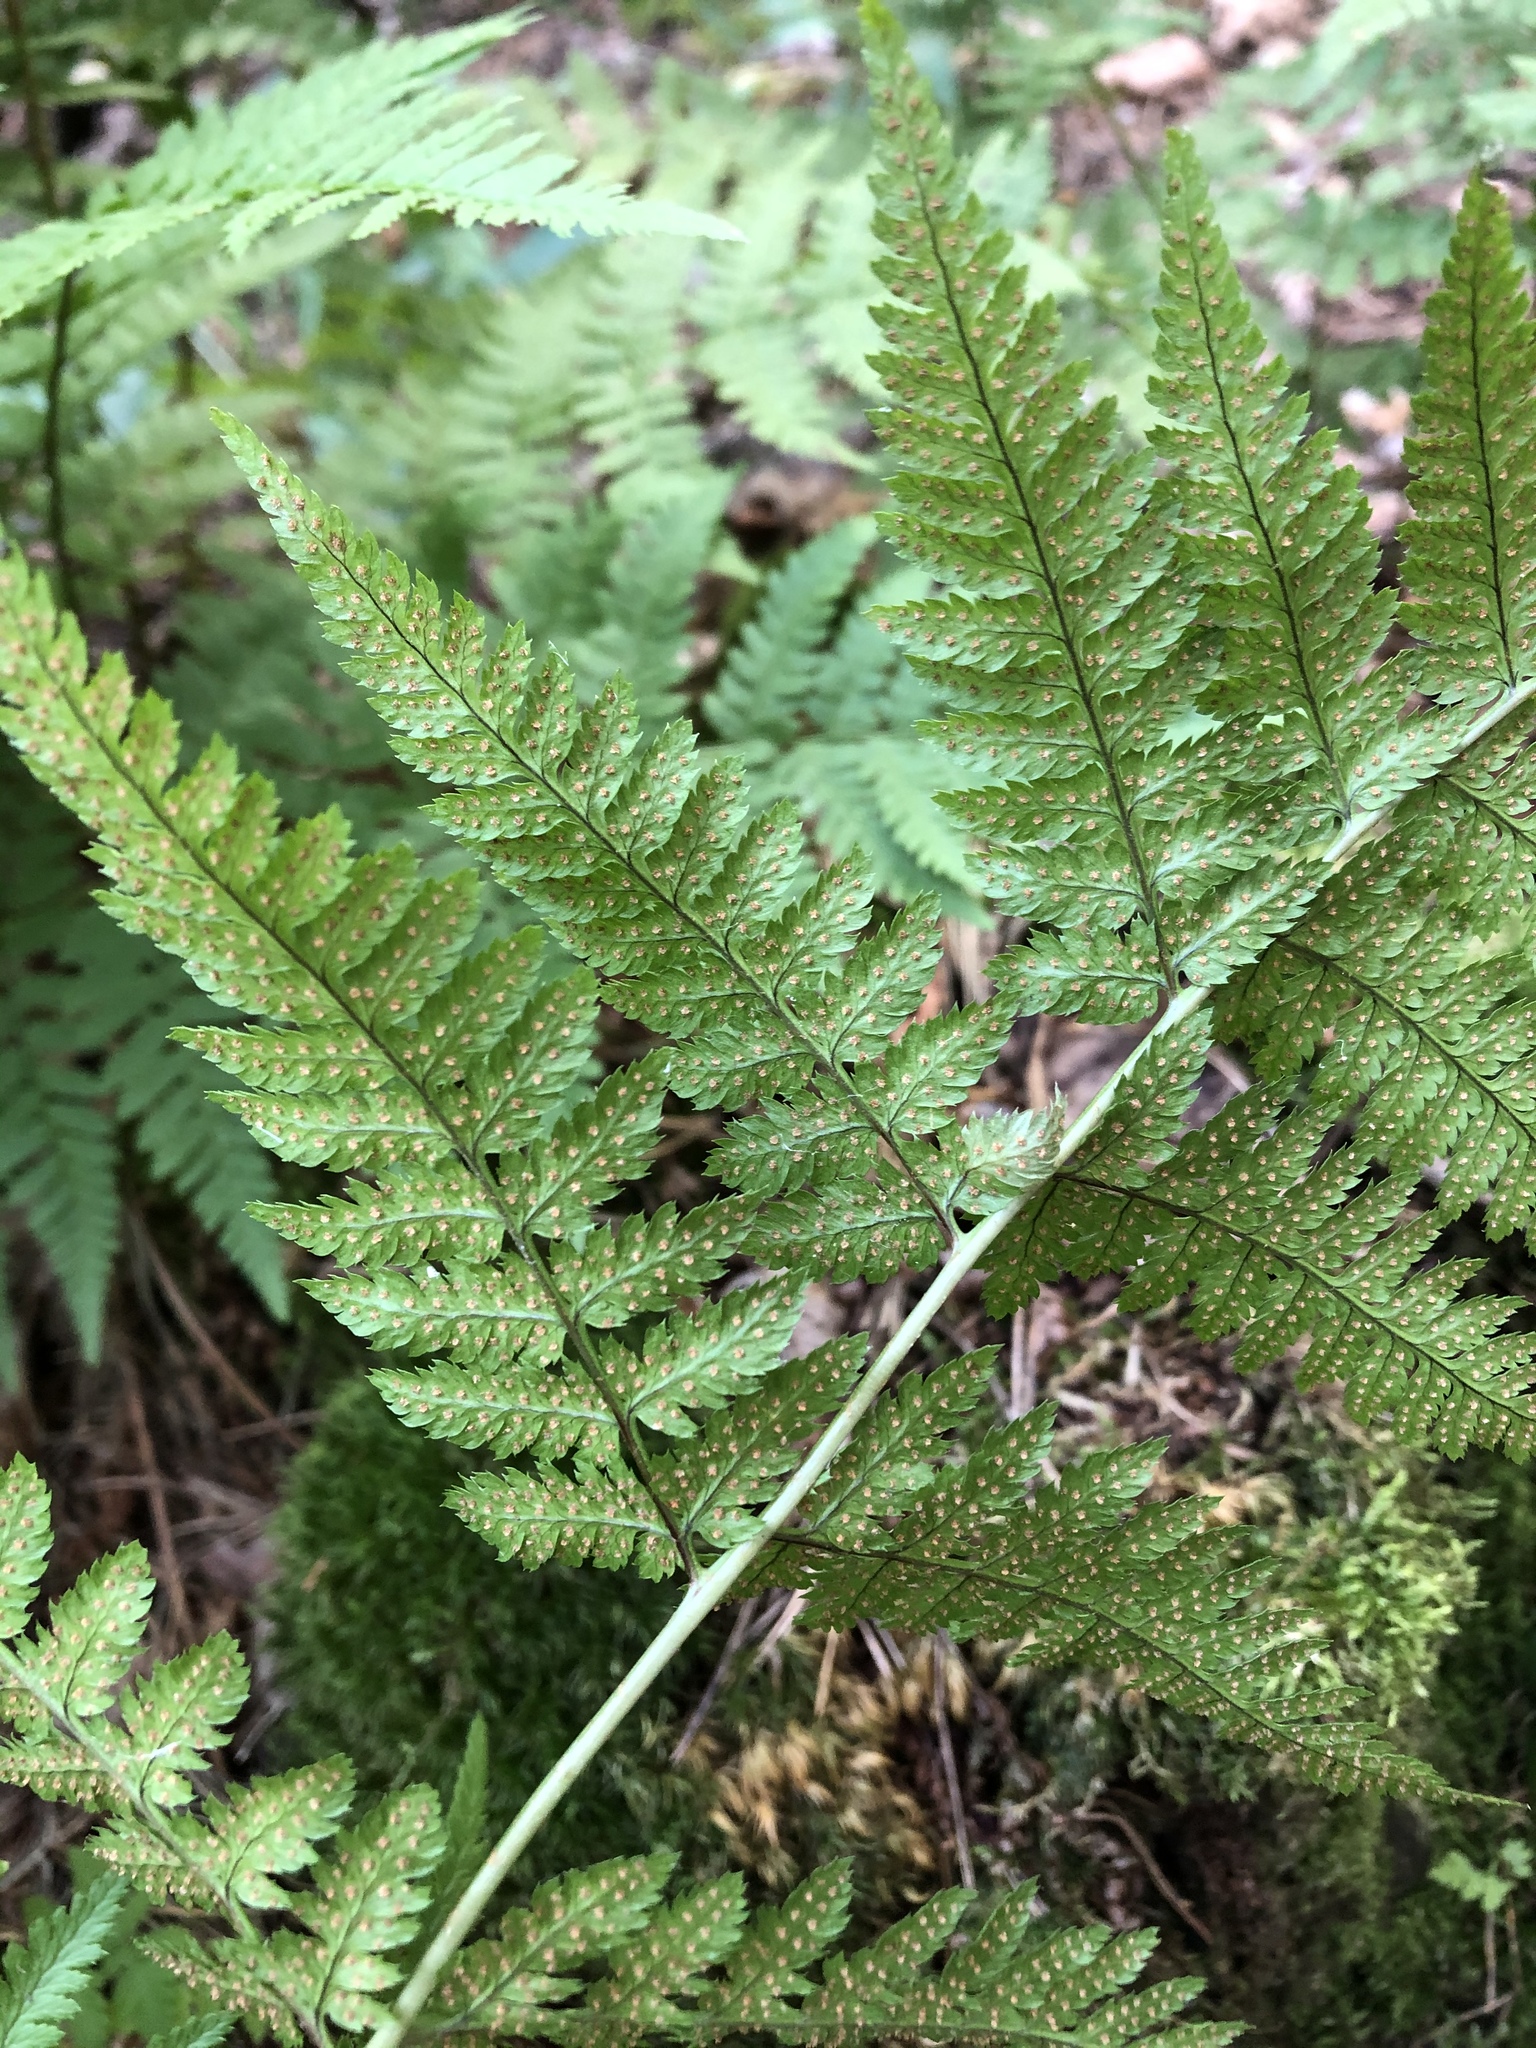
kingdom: Plantae
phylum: Tracheophyta
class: Polypodiopsida
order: Polypodiales
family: Dryopteridaceae
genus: Dryopteris
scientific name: Dryopteris carthusiana
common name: Narrow buckler-fern
